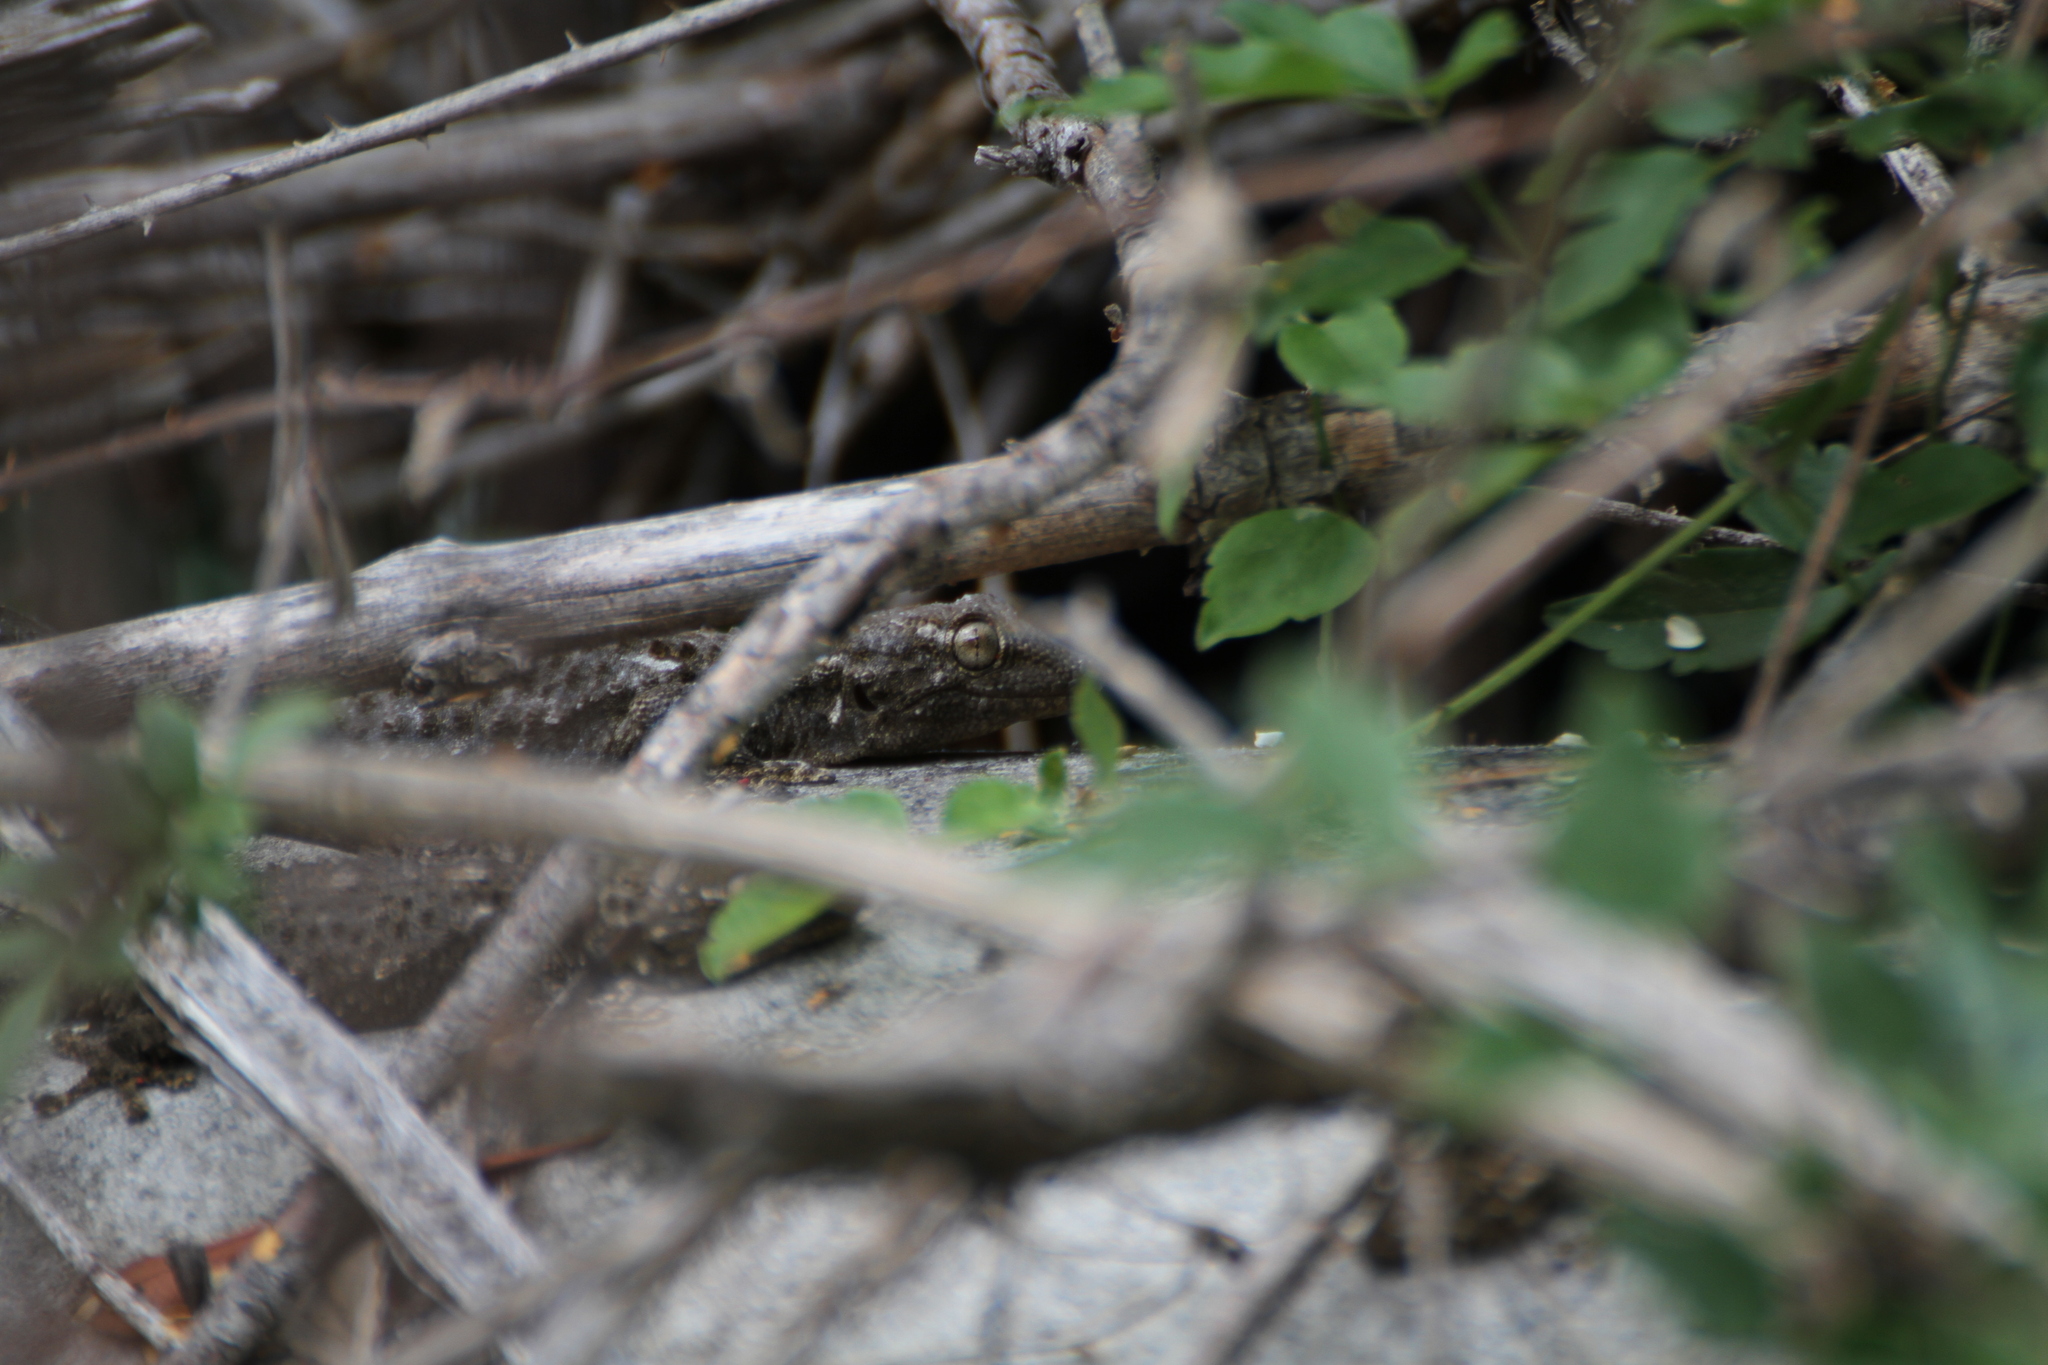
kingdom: Animalia
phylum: Chordata
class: Squamata
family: Phyllodactylidae
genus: Tarentola
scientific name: Tarentola mauritanica
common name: Moorish gecko
